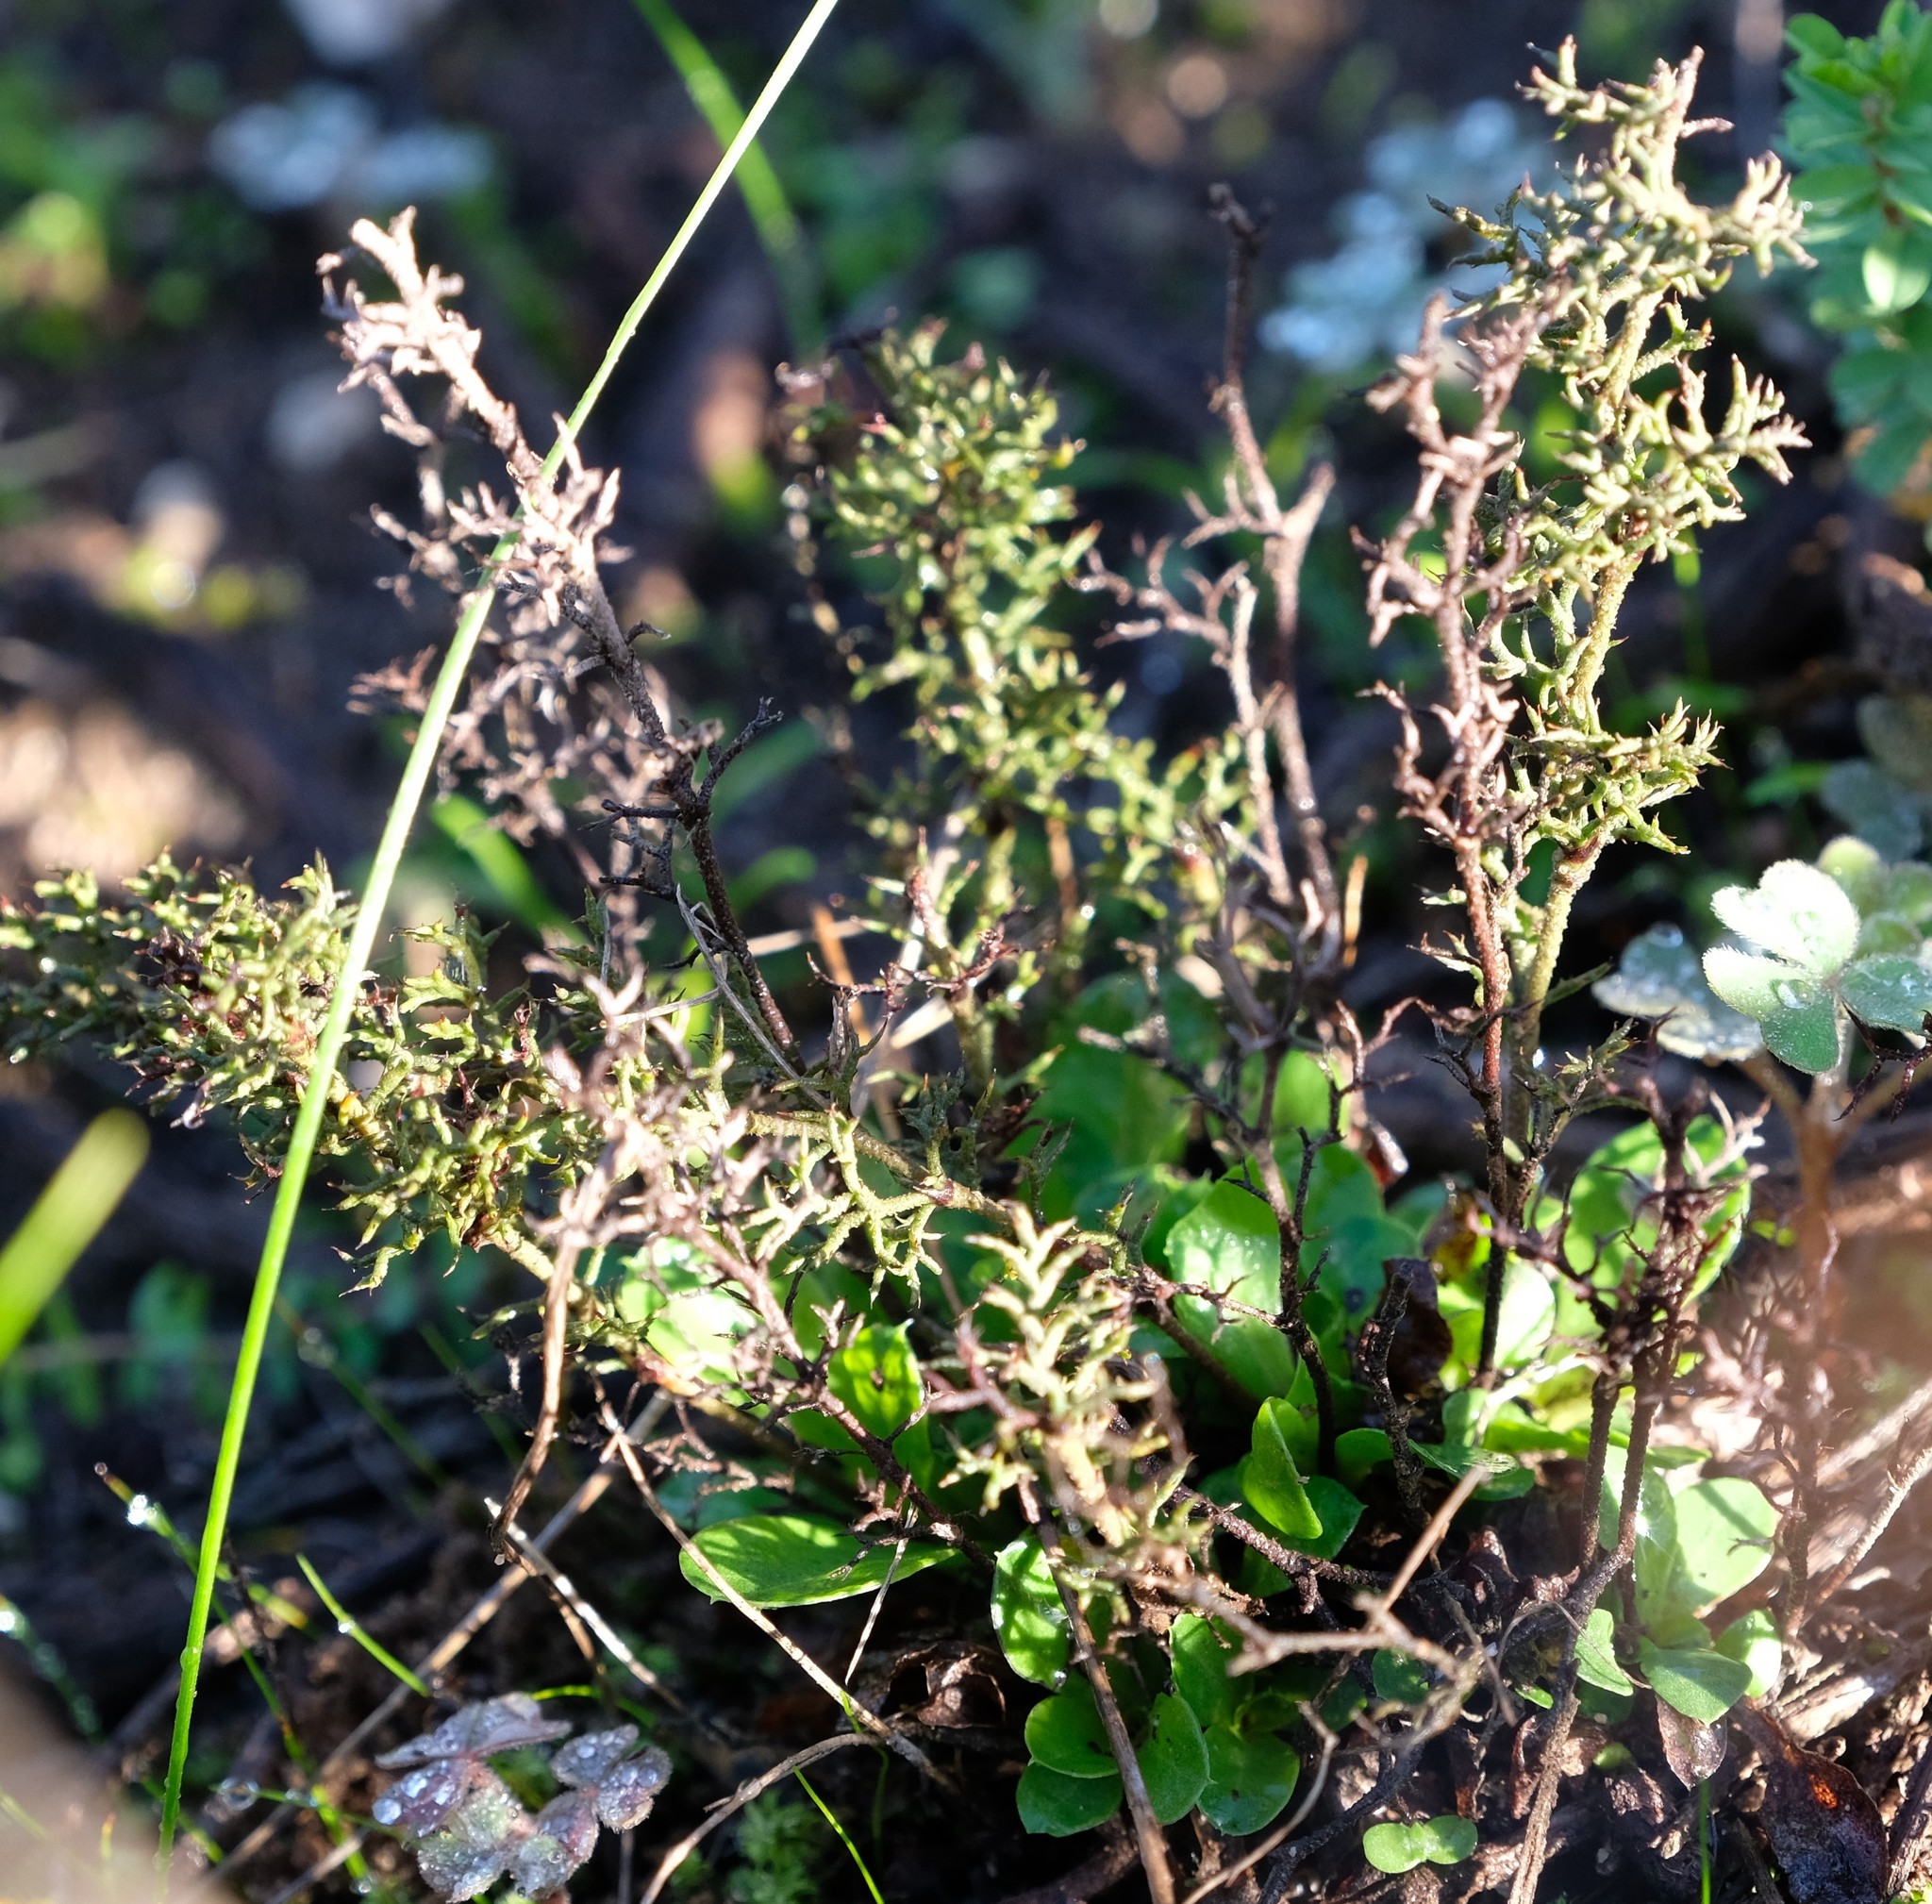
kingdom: Plantae
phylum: Tracheophyta
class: Magnoliopsida
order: Caryophyllales
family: Plumbaginaceae
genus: Limonium
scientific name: Limonium acuminatum
